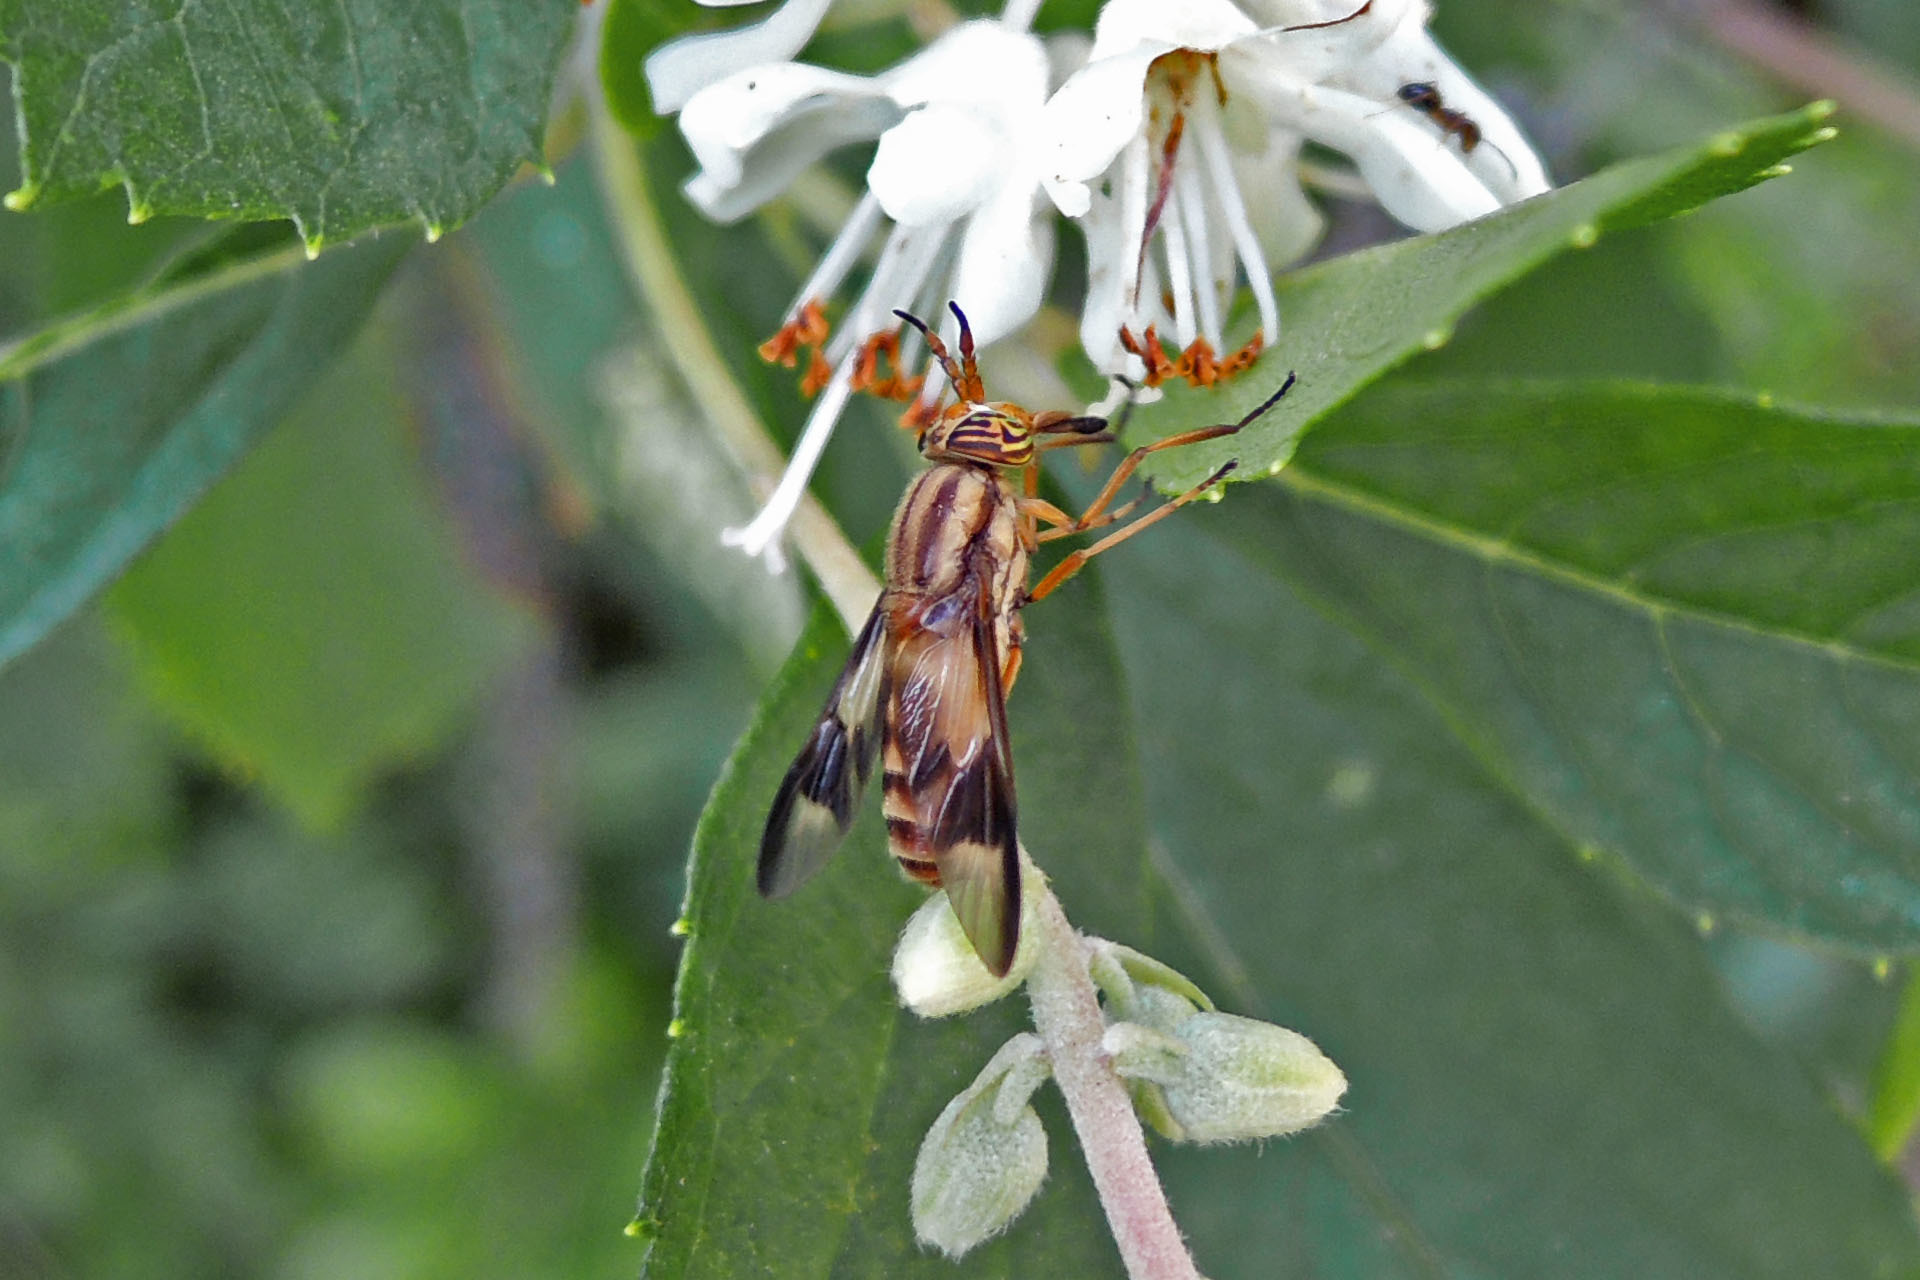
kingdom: Animalia
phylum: Arthropoda
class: Insecta
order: Diptera
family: Tabanidae
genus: Chrysops
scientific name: Chrysops flavidus
